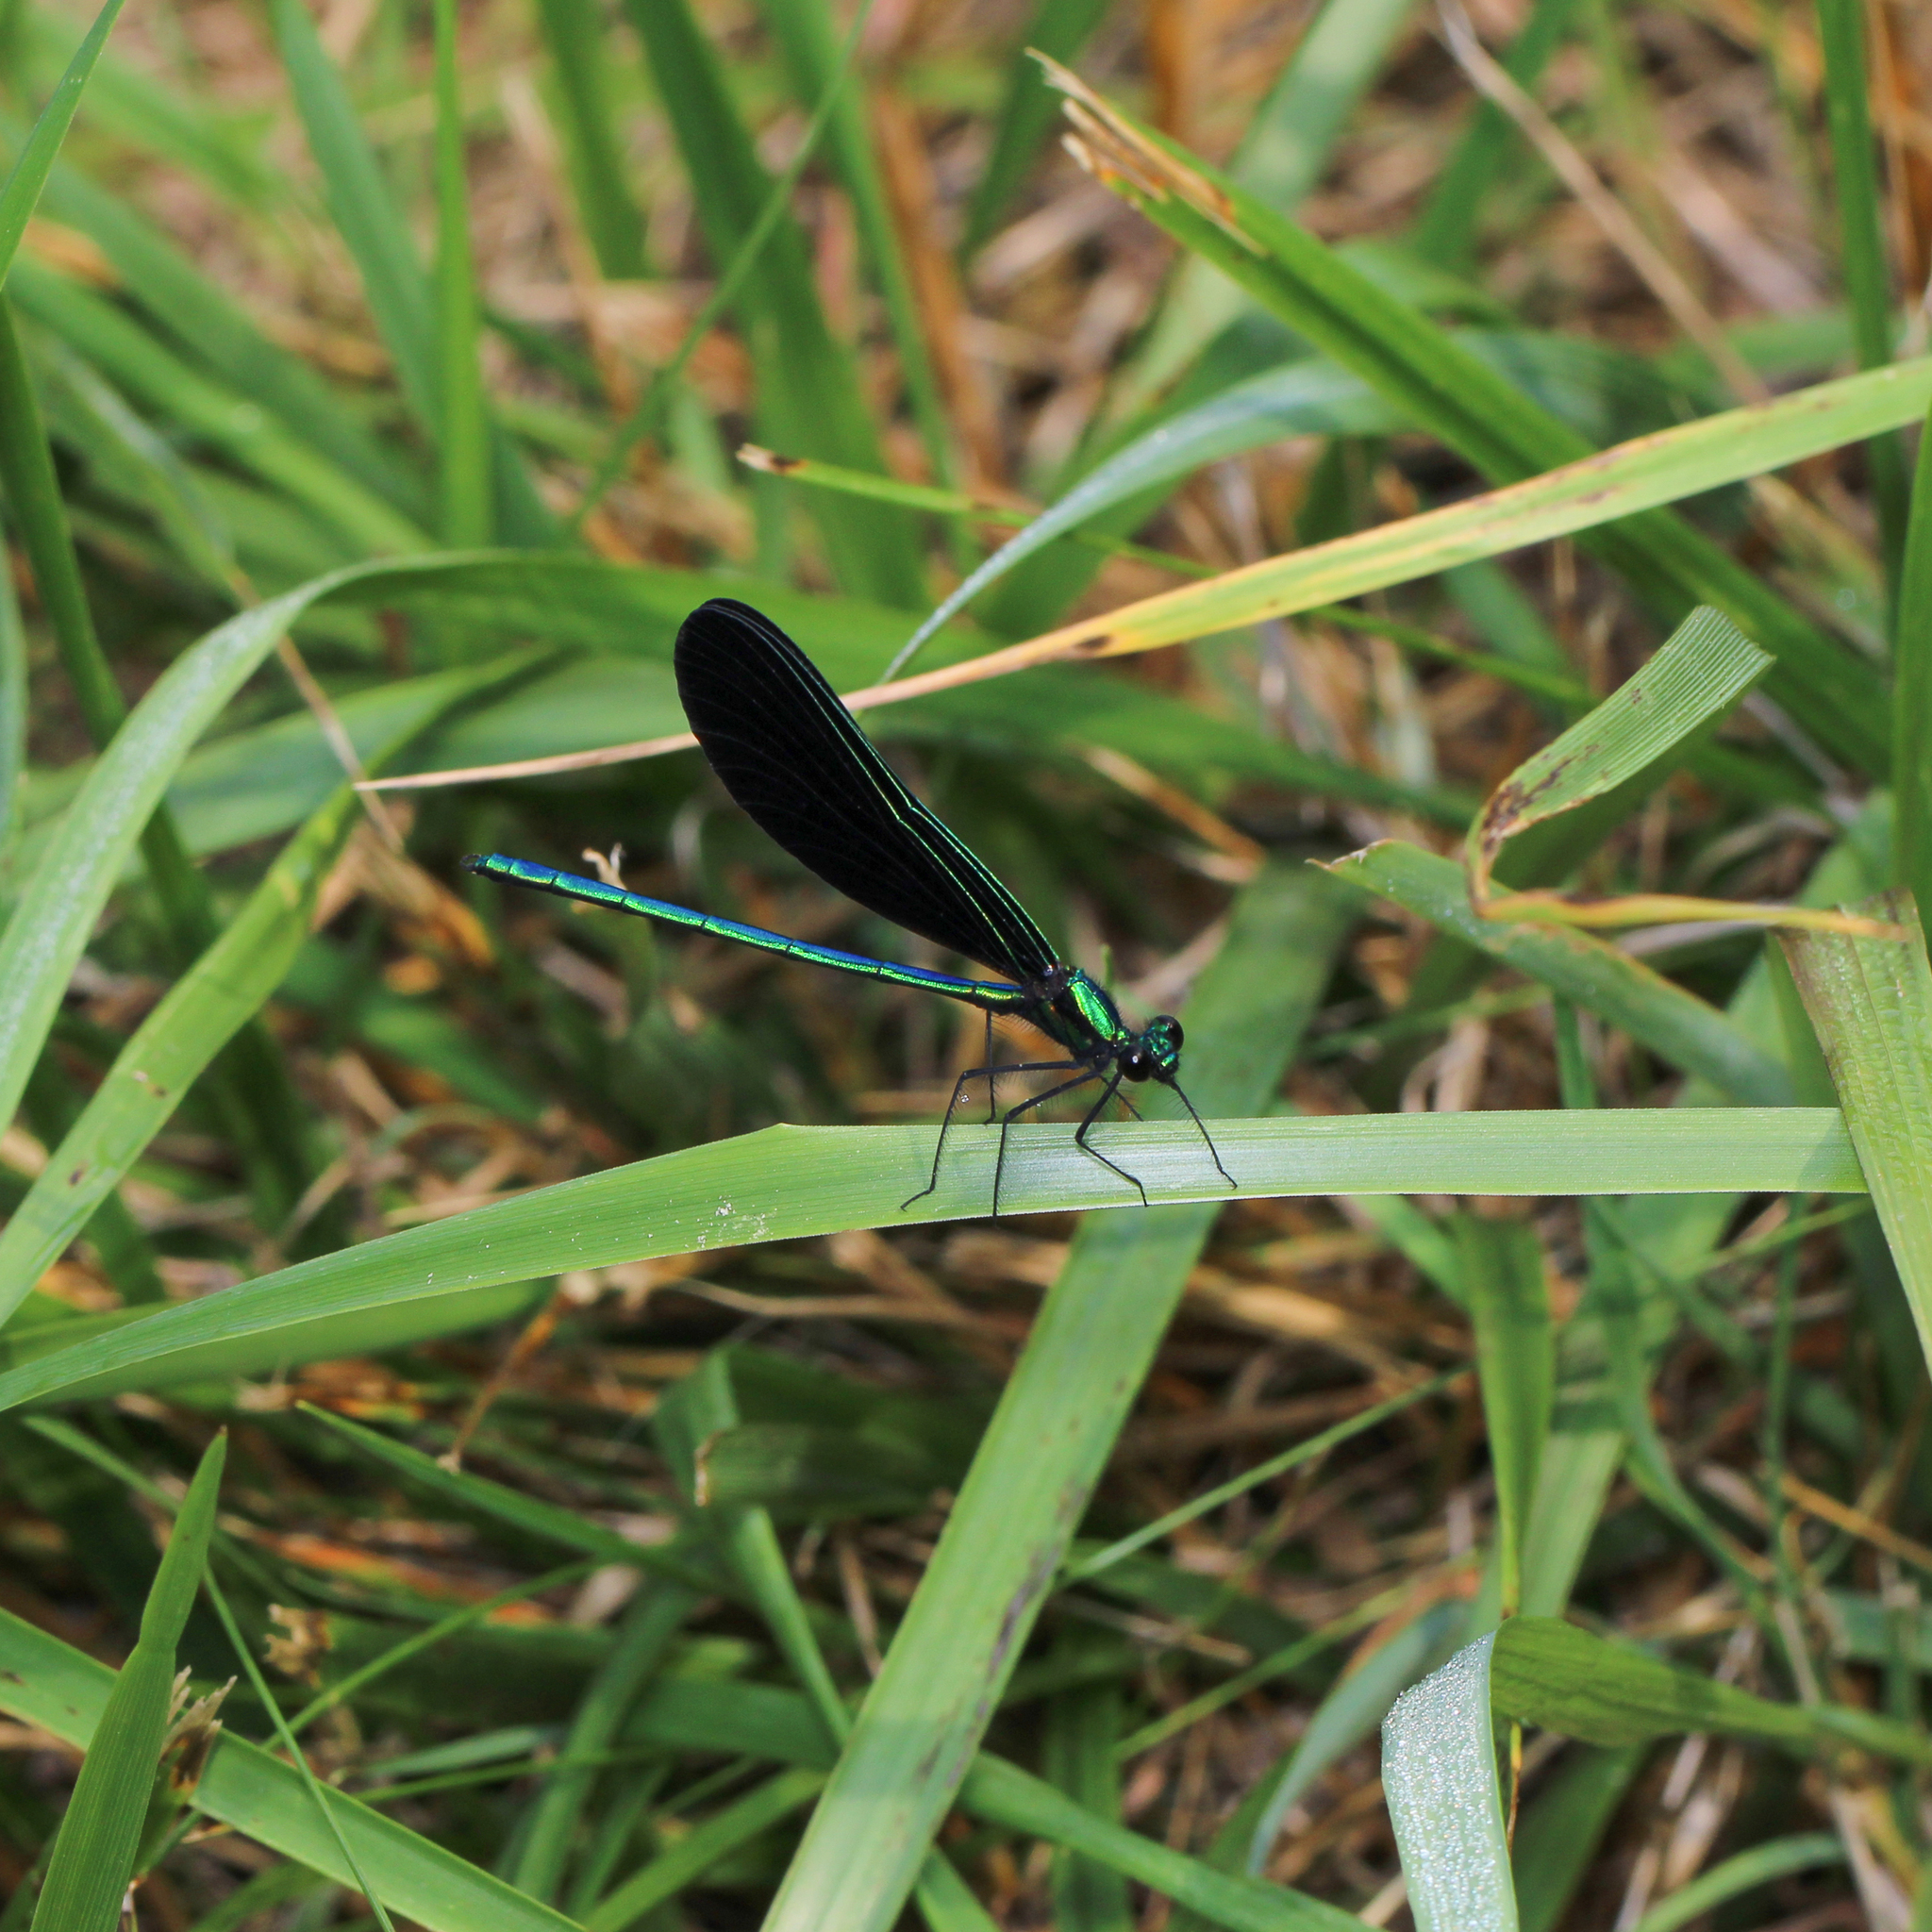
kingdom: Animalia
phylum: Arthropoda
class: Insecta
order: Odonata
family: Calopterygidae
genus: Calopteryx
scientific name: Calopteryx maculata
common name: Ebony jewelwing
